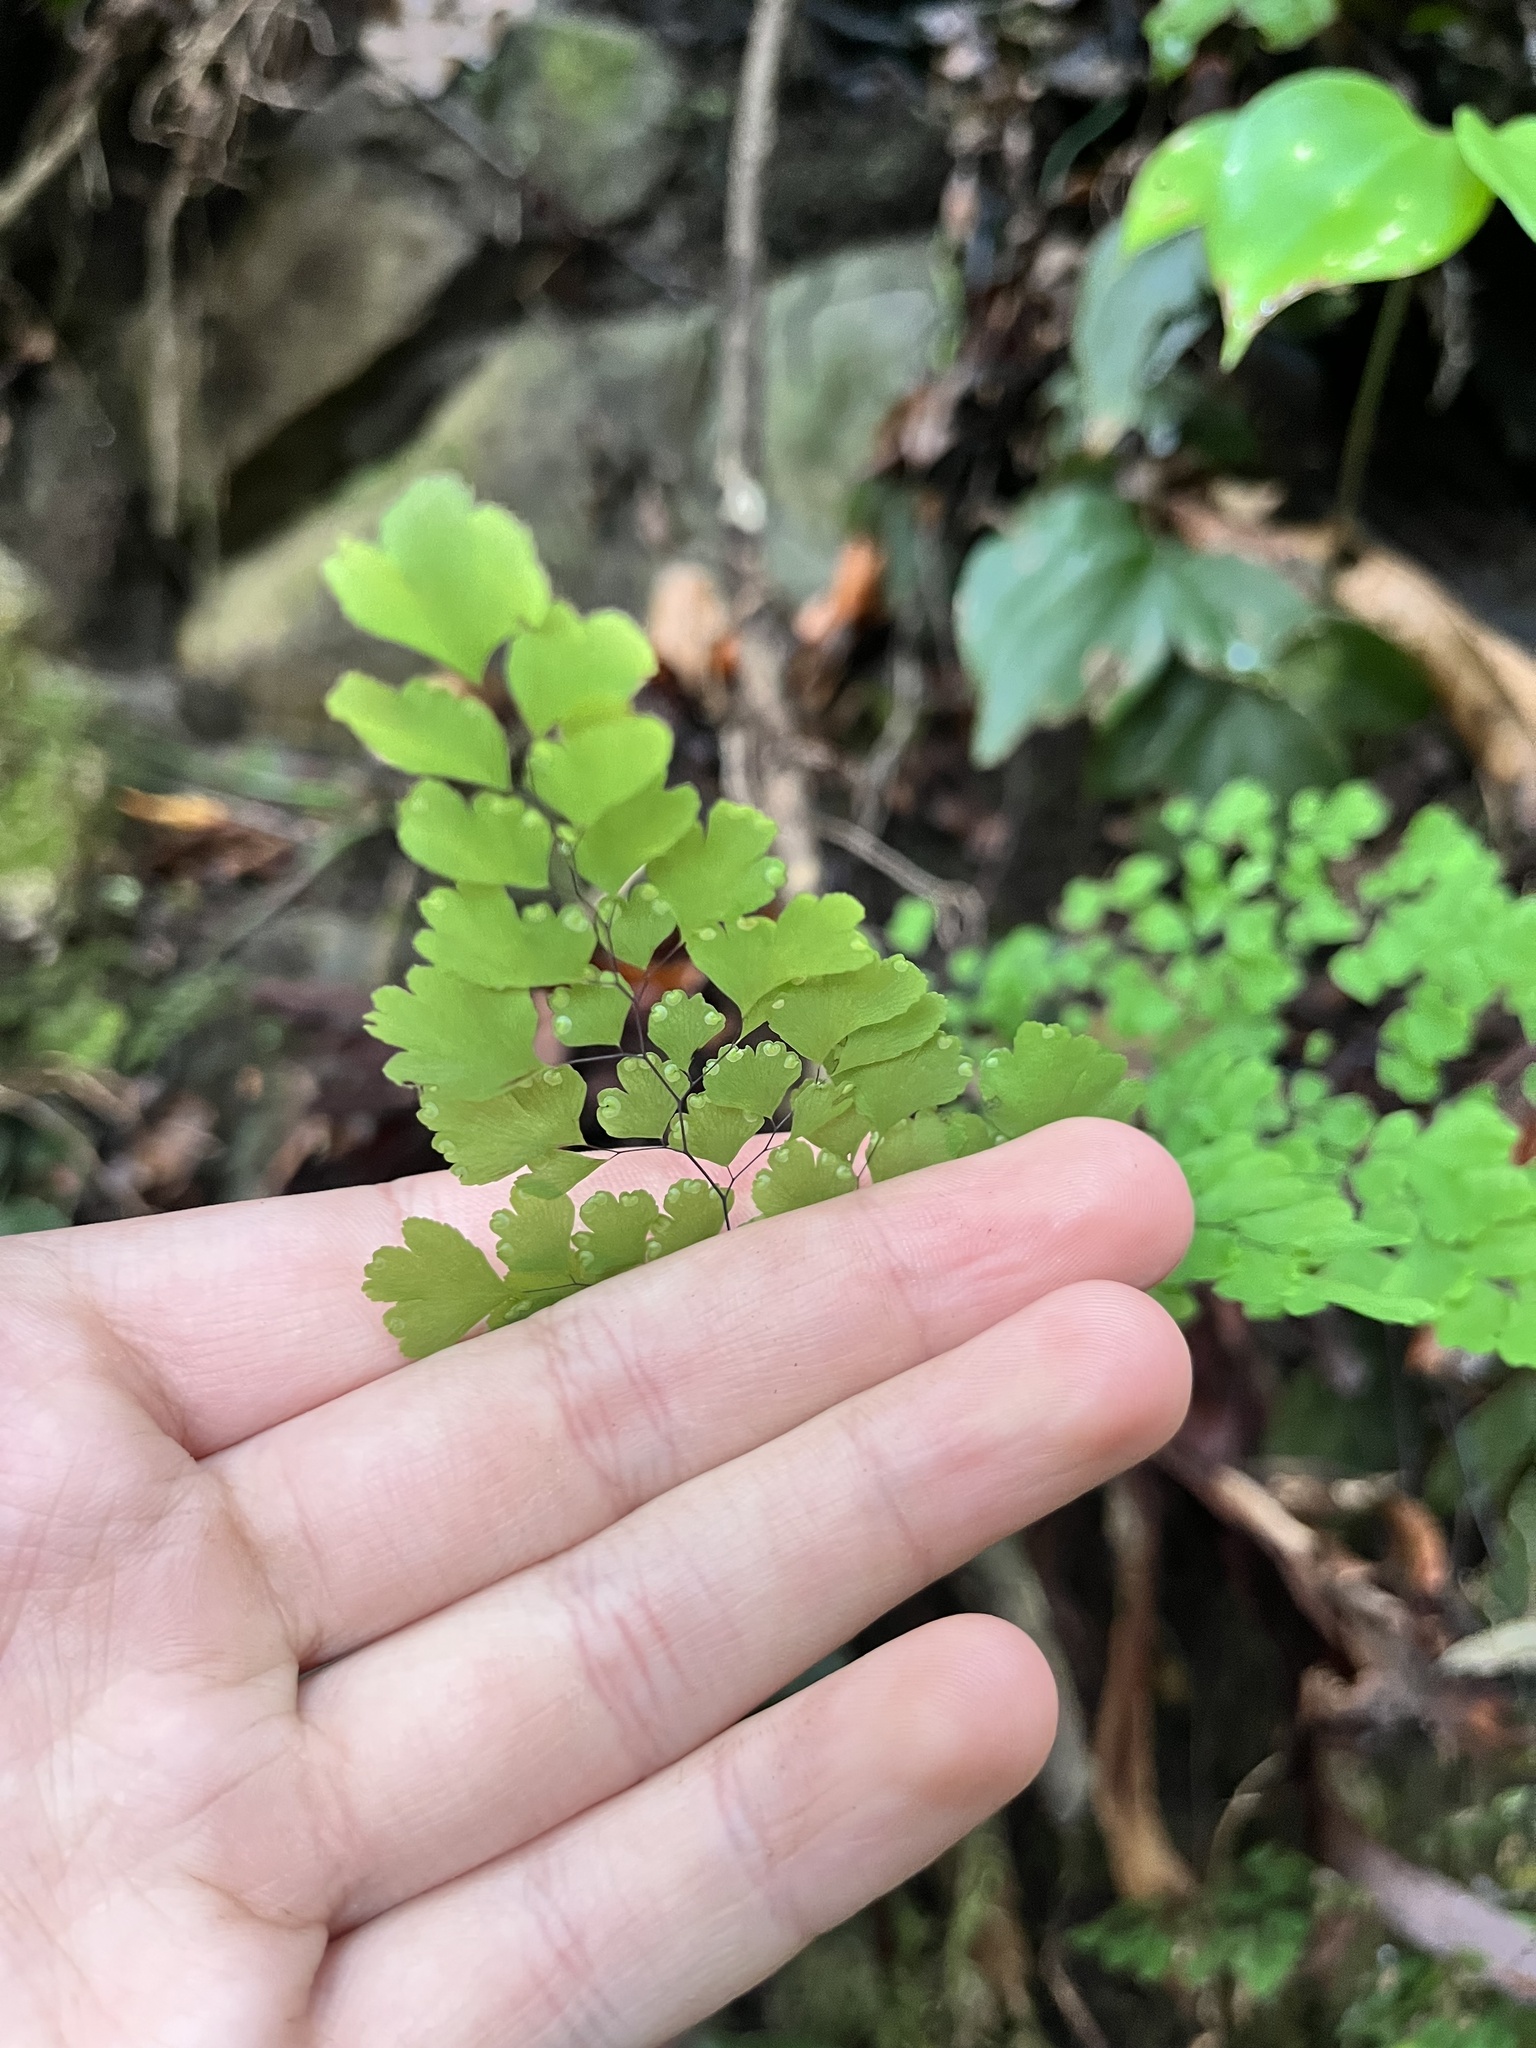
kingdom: Plantae
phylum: Tracheophyta
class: Polypodiopsida
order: Polypodiales
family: Pteridaceae
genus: Adiantum
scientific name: Adiantum raddianum
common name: Delta maidenhair fern
